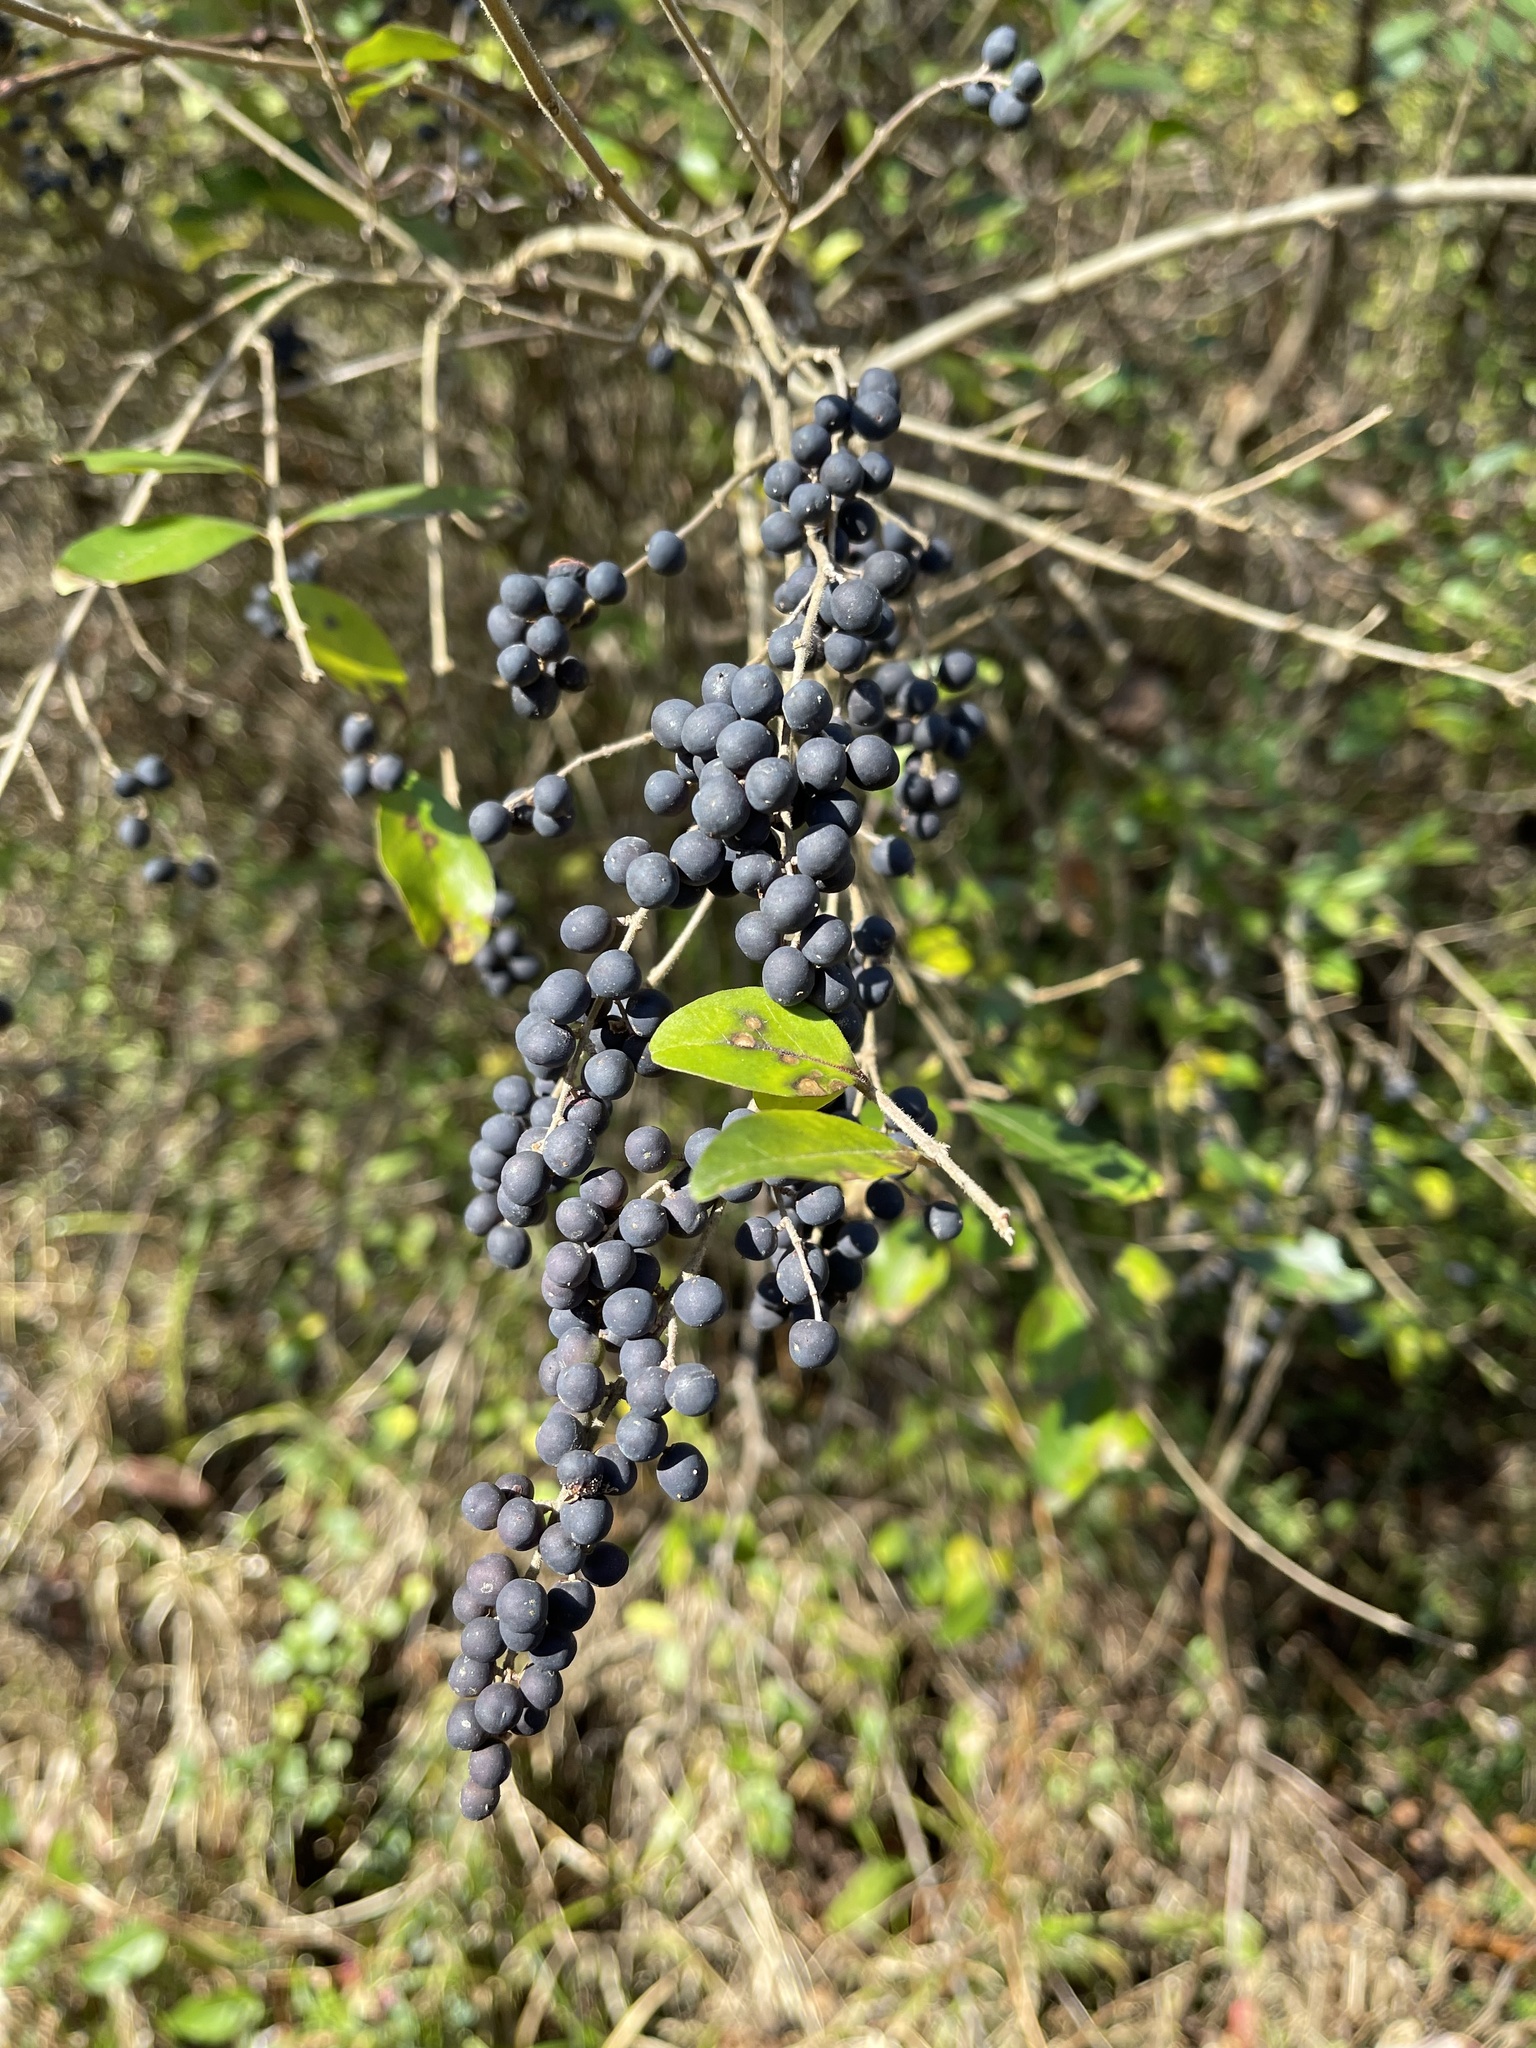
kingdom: Plantae
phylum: Tracheophyta
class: Magnoliopsida
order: Lamiales
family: Oleaceae
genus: Ligustrum
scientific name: Ligustrum sinense
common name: Chinese privet
